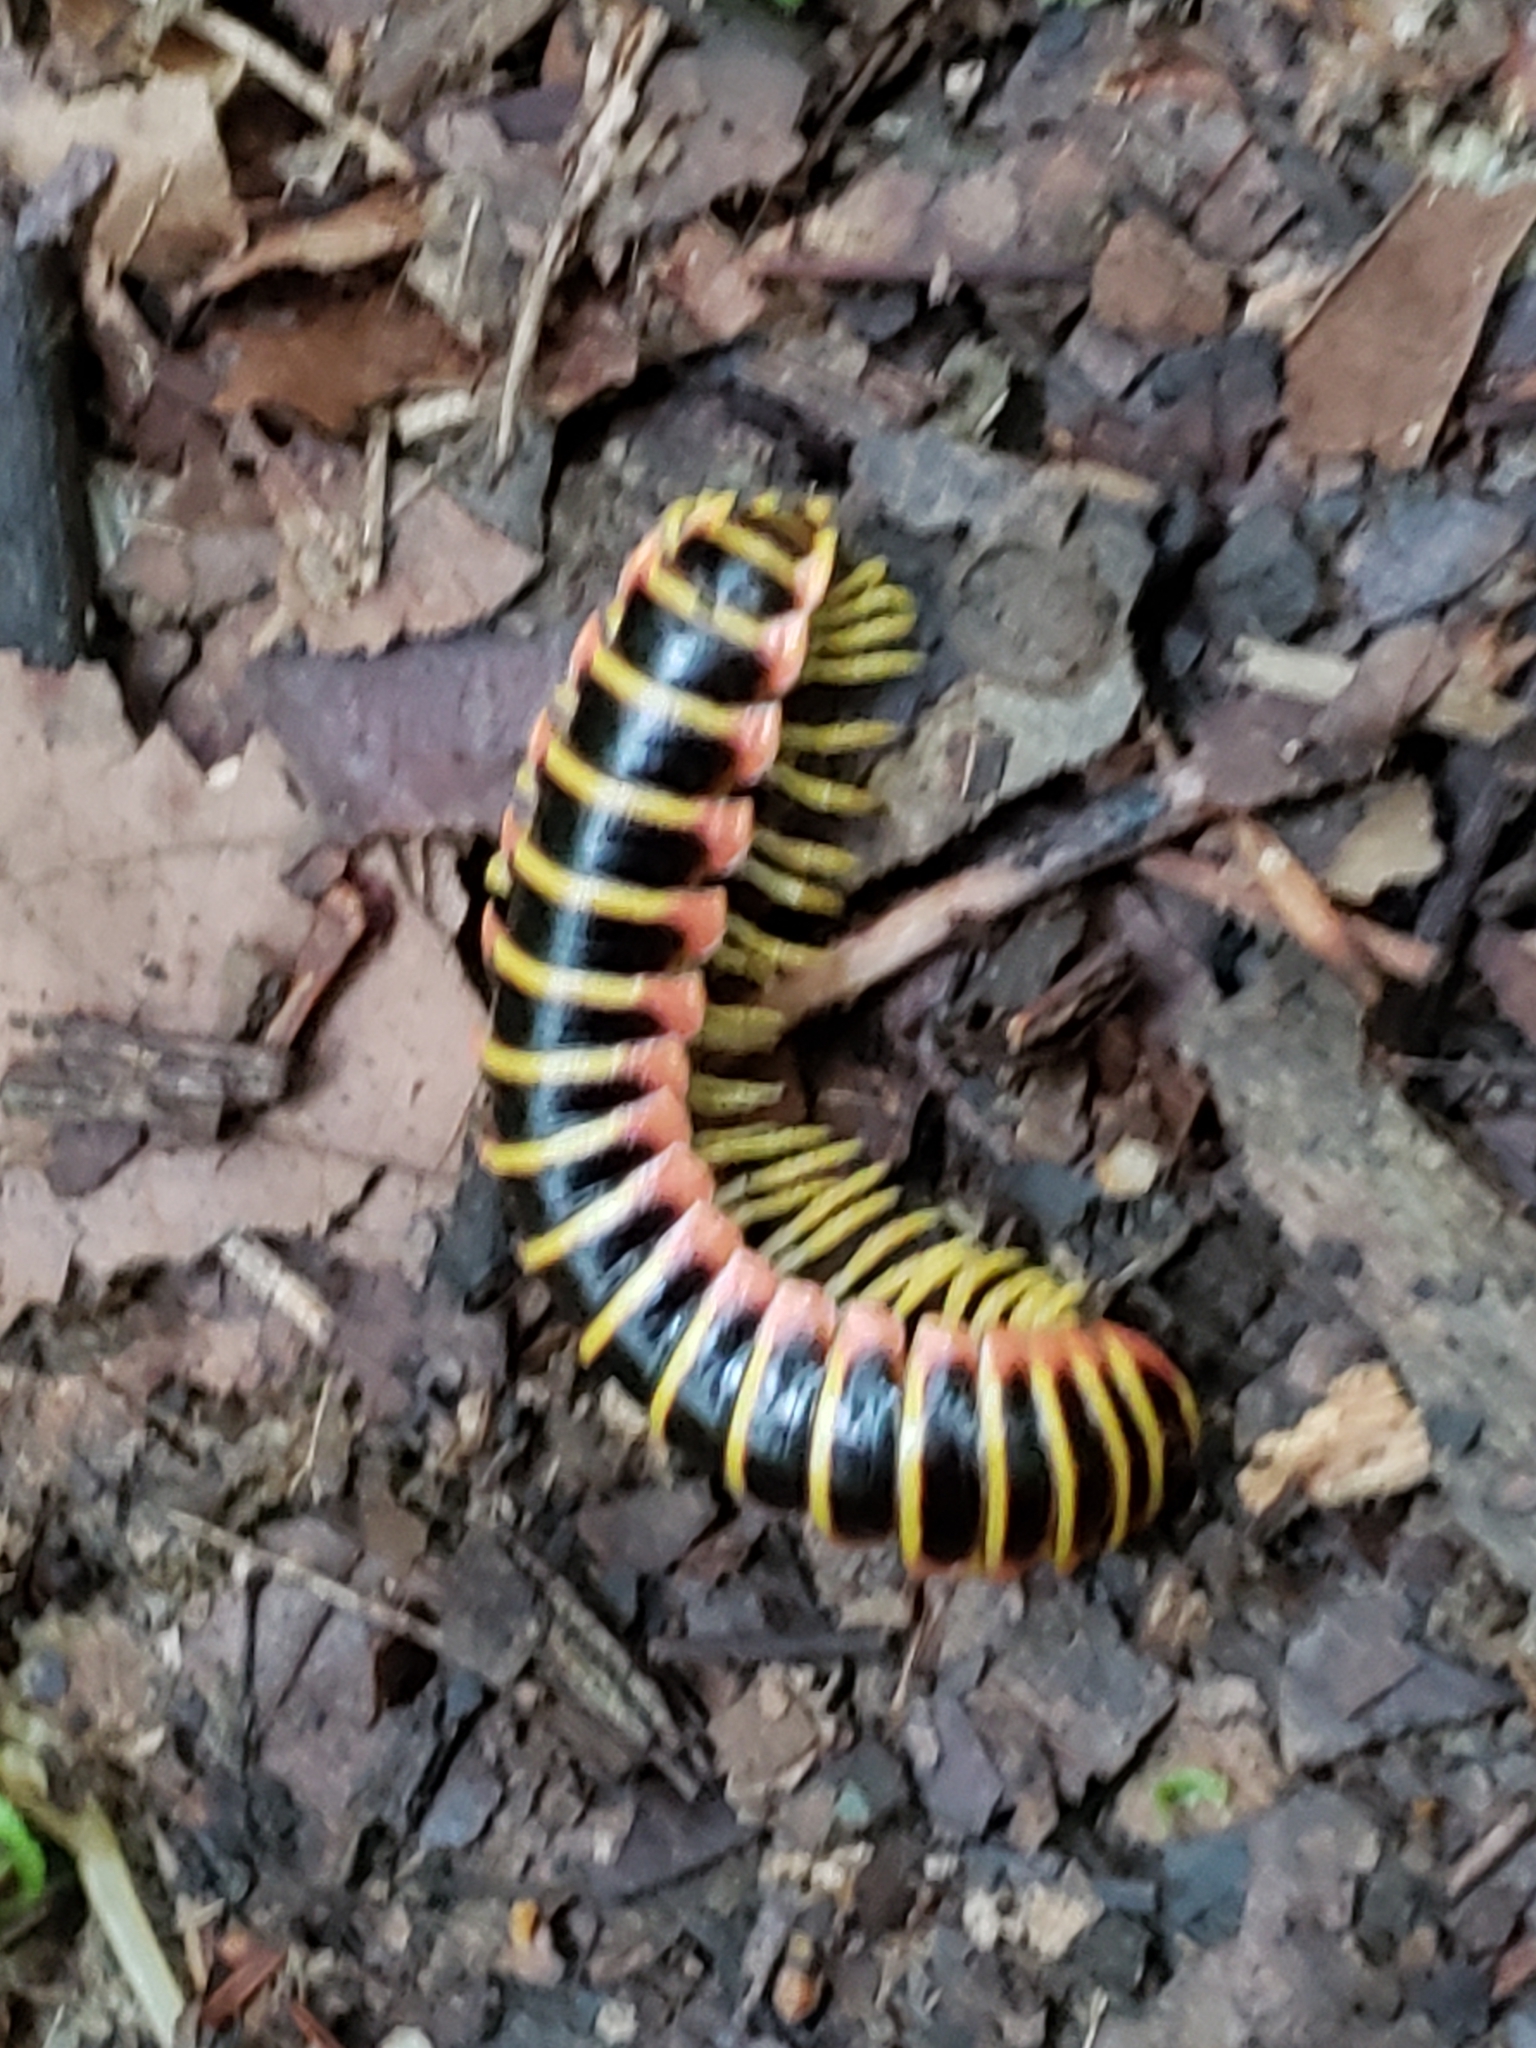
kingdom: Animalia
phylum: Arthropoda
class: Diplopoda
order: Polydesmida
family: Xystodesmidae
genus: Apheloria
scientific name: Apheloria virginiensis
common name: Black-and-gold flat millipede
